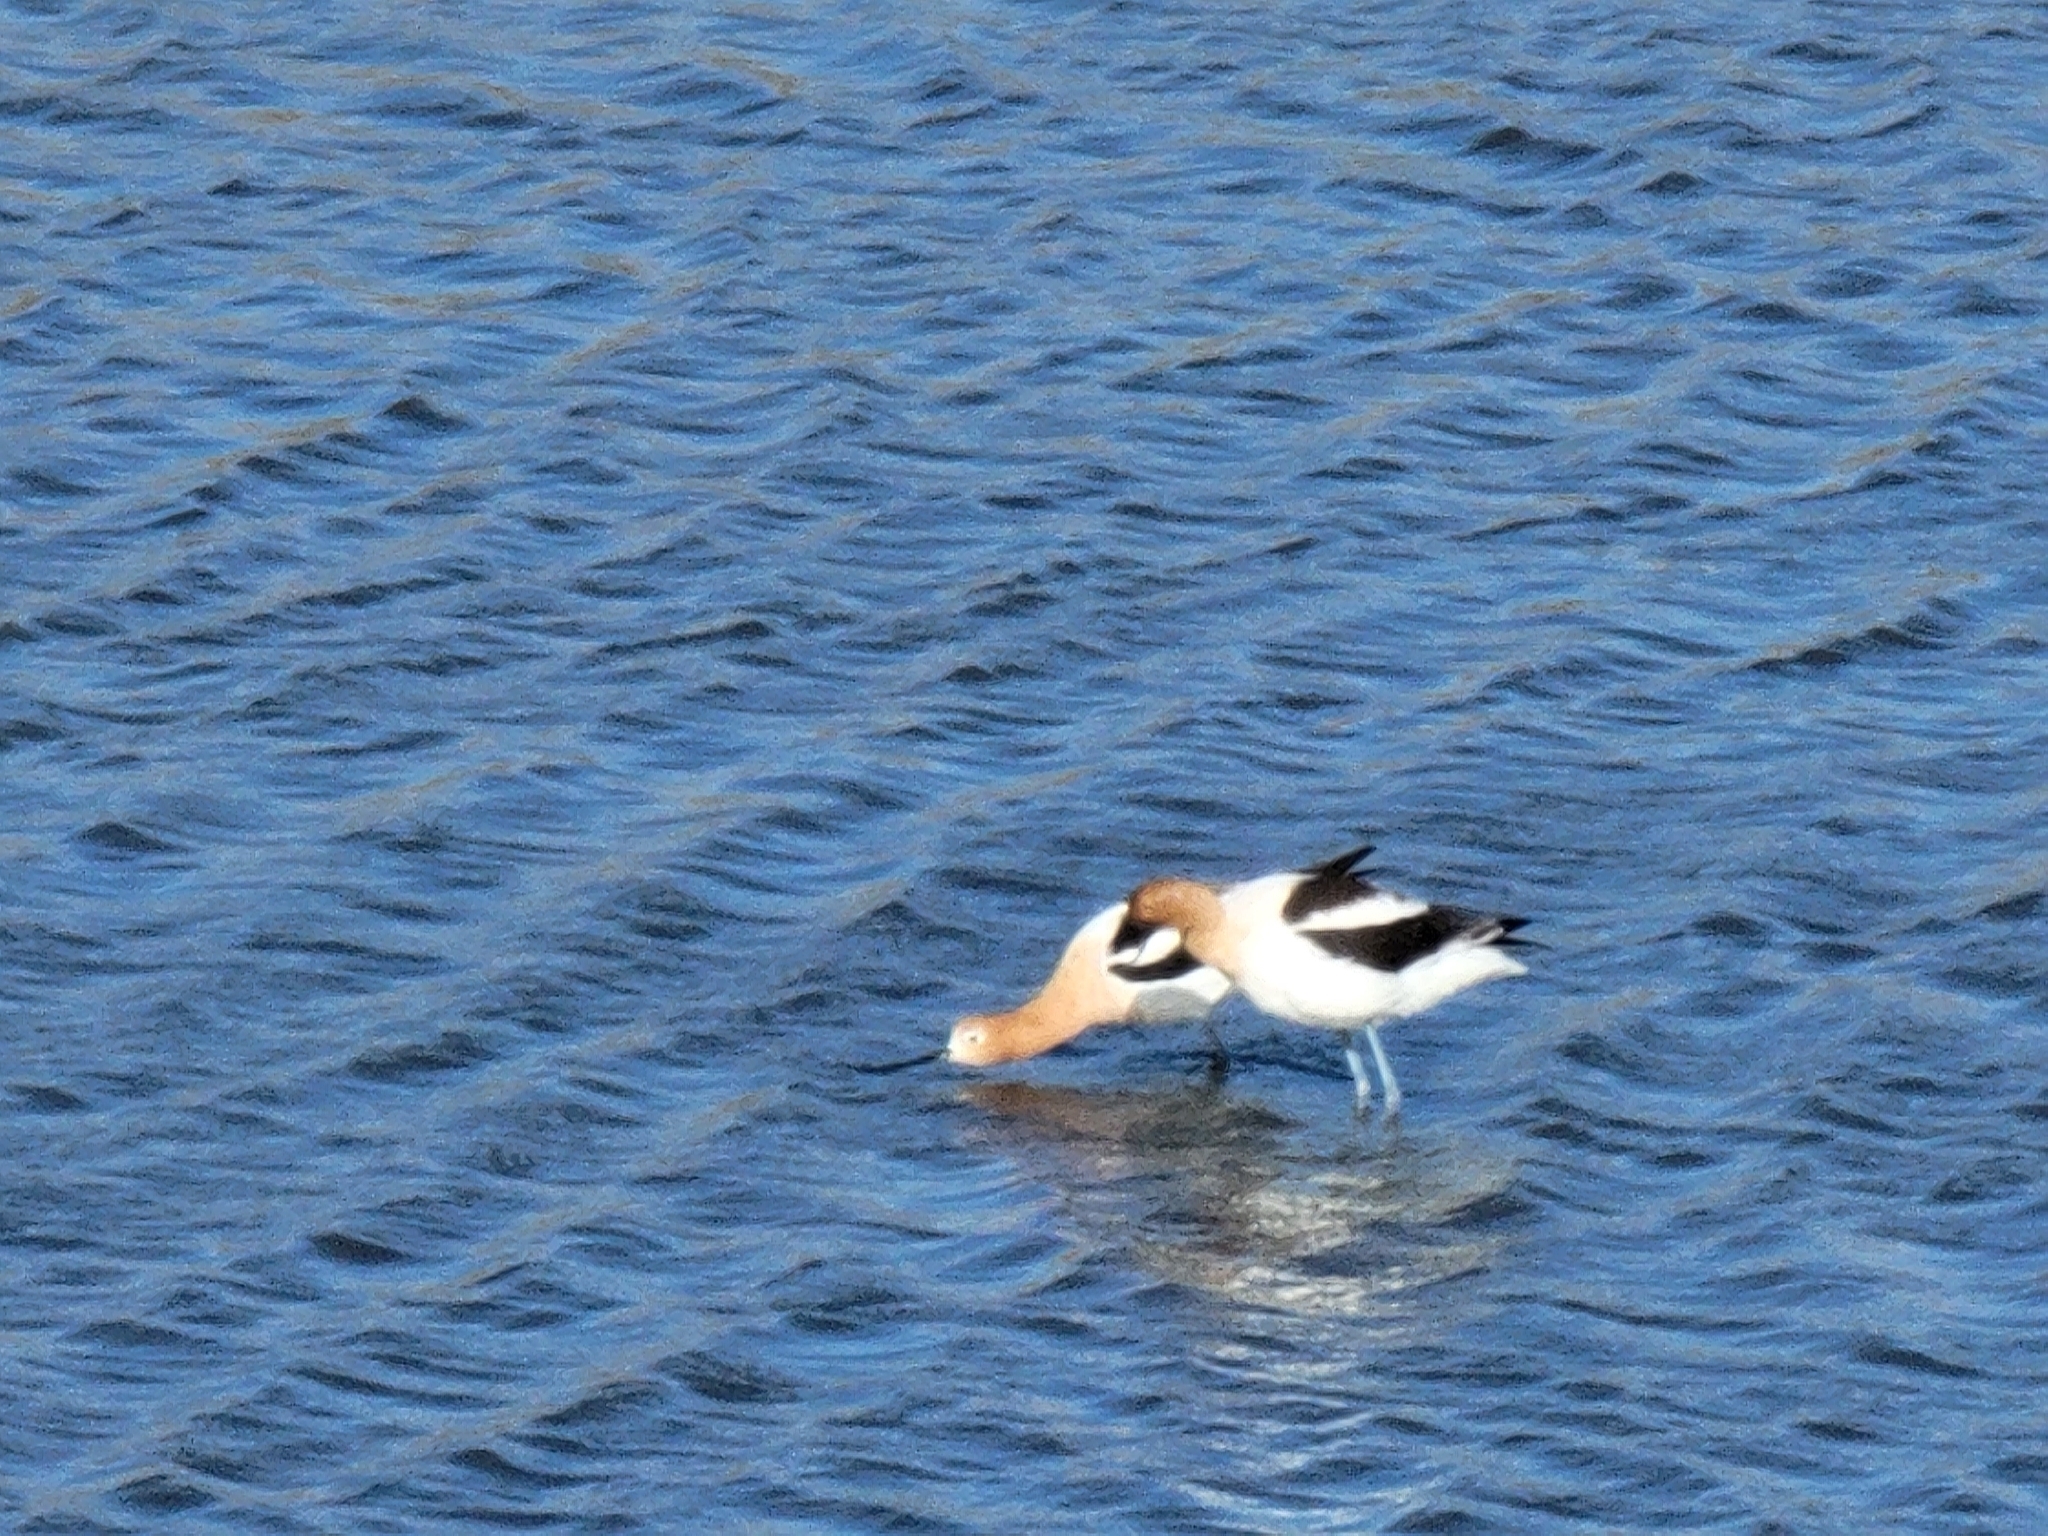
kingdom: Animalia
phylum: Chordata
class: Aves
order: Charadriiformes
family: Recurvirostridae
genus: Recurvirostra
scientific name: Recurvirostra americana
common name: American avocet
